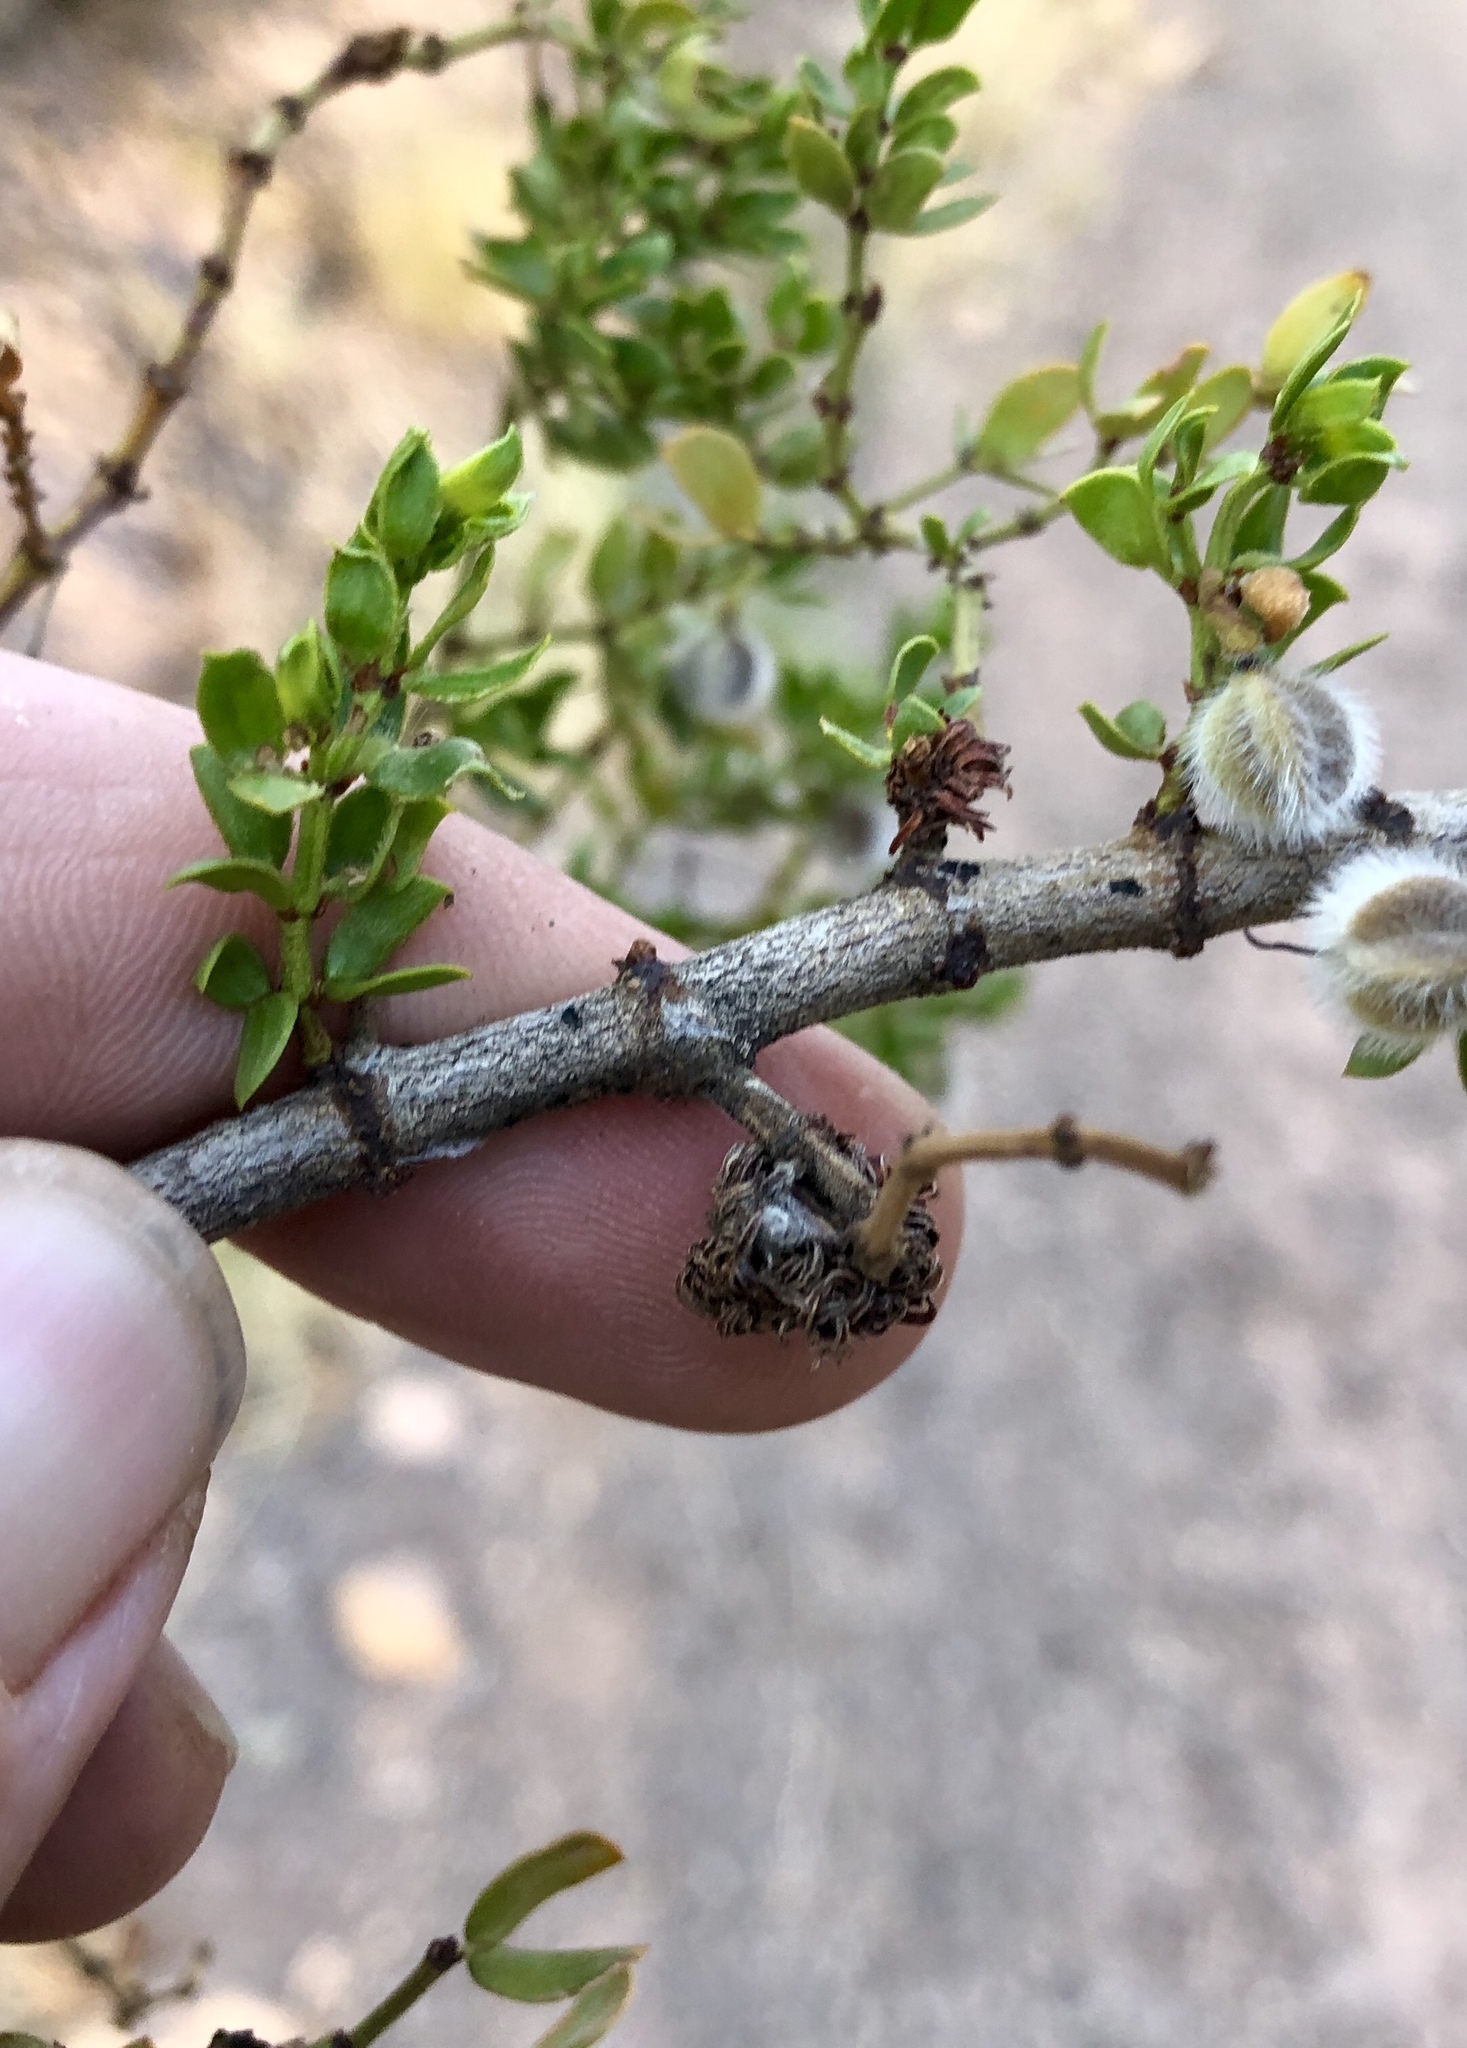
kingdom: Animalia
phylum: Arthropoda
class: Insecta
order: Diptera
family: Cecidomyiidae
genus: Asphondylia
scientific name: Asphondylia auripila
